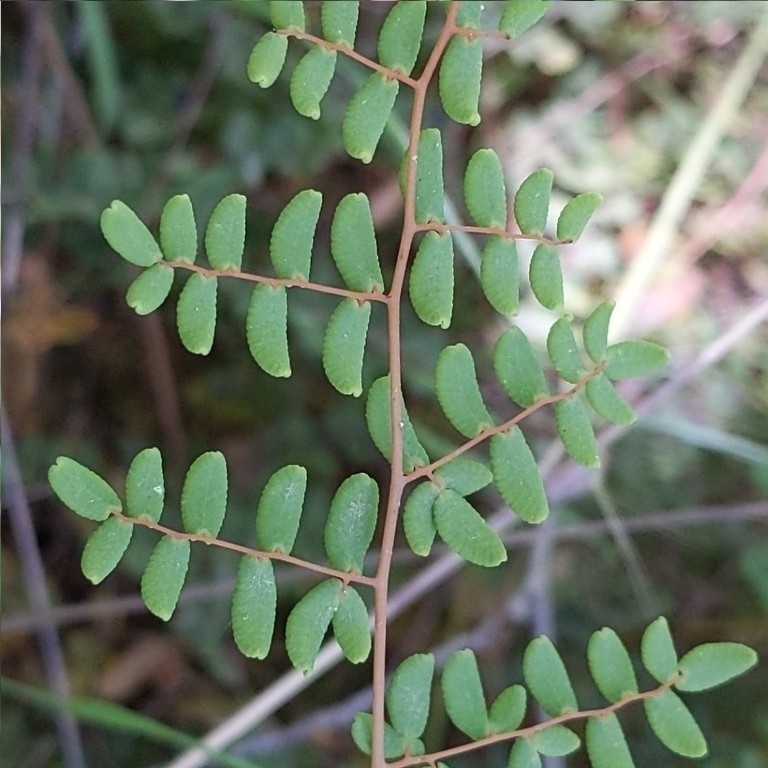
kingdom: Plantae
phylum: Tracheophyta
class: Polypodiopsida
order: Polypodiales
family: Pteridaceae
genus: Pellaea
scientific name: Pellaea andromedifolia
